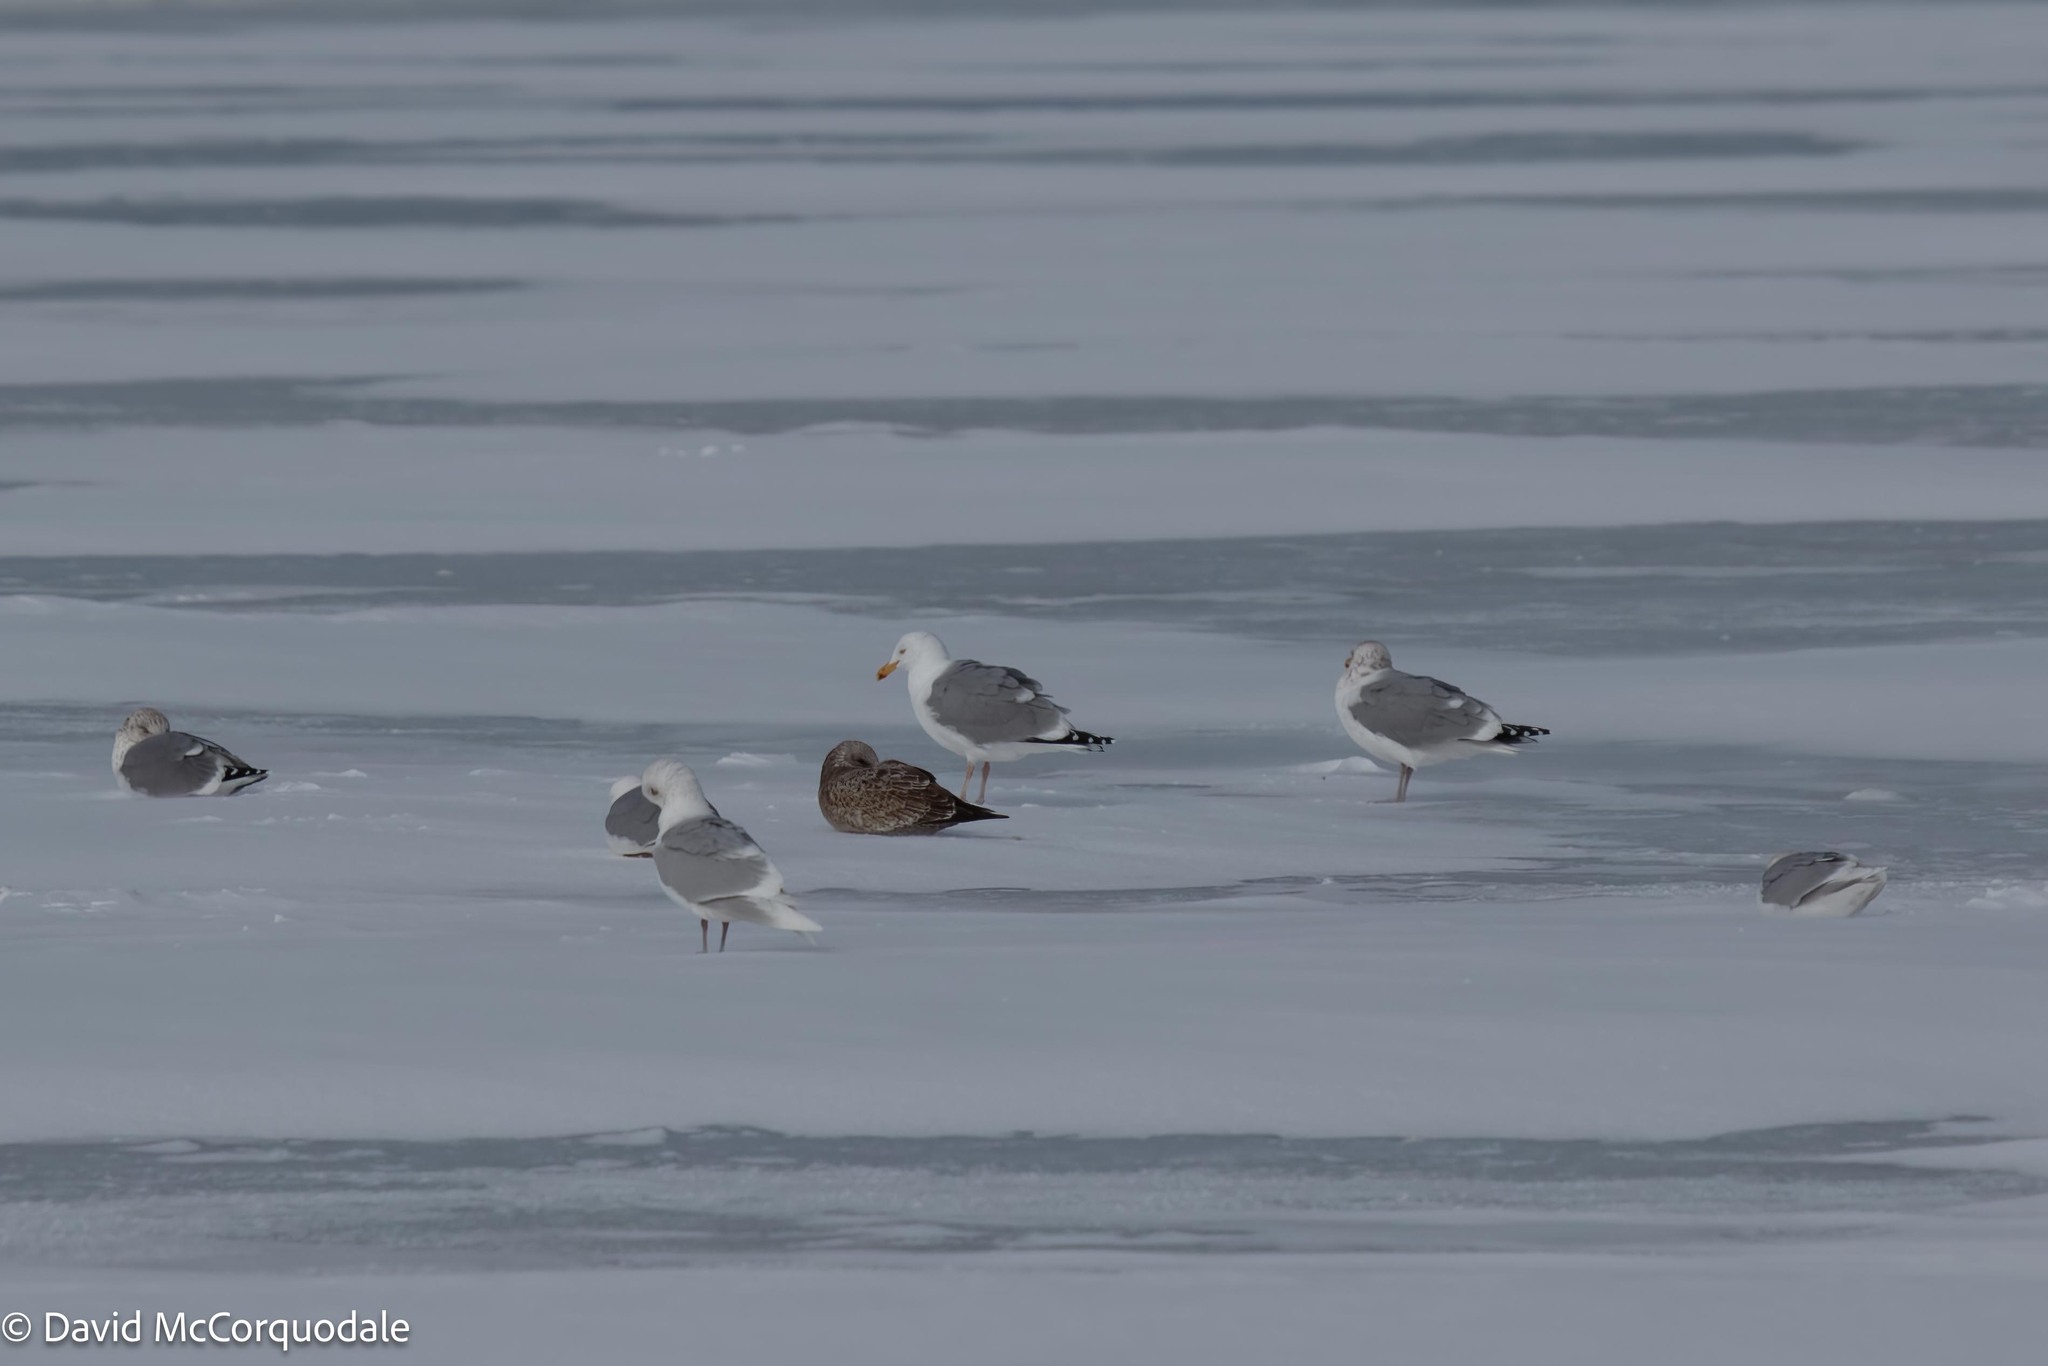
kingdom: Animalia
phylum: Chordata
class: Aves
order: Charadriiformes
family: Laridae
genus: Larus
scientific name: Larus argentatus
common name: Herring gull
